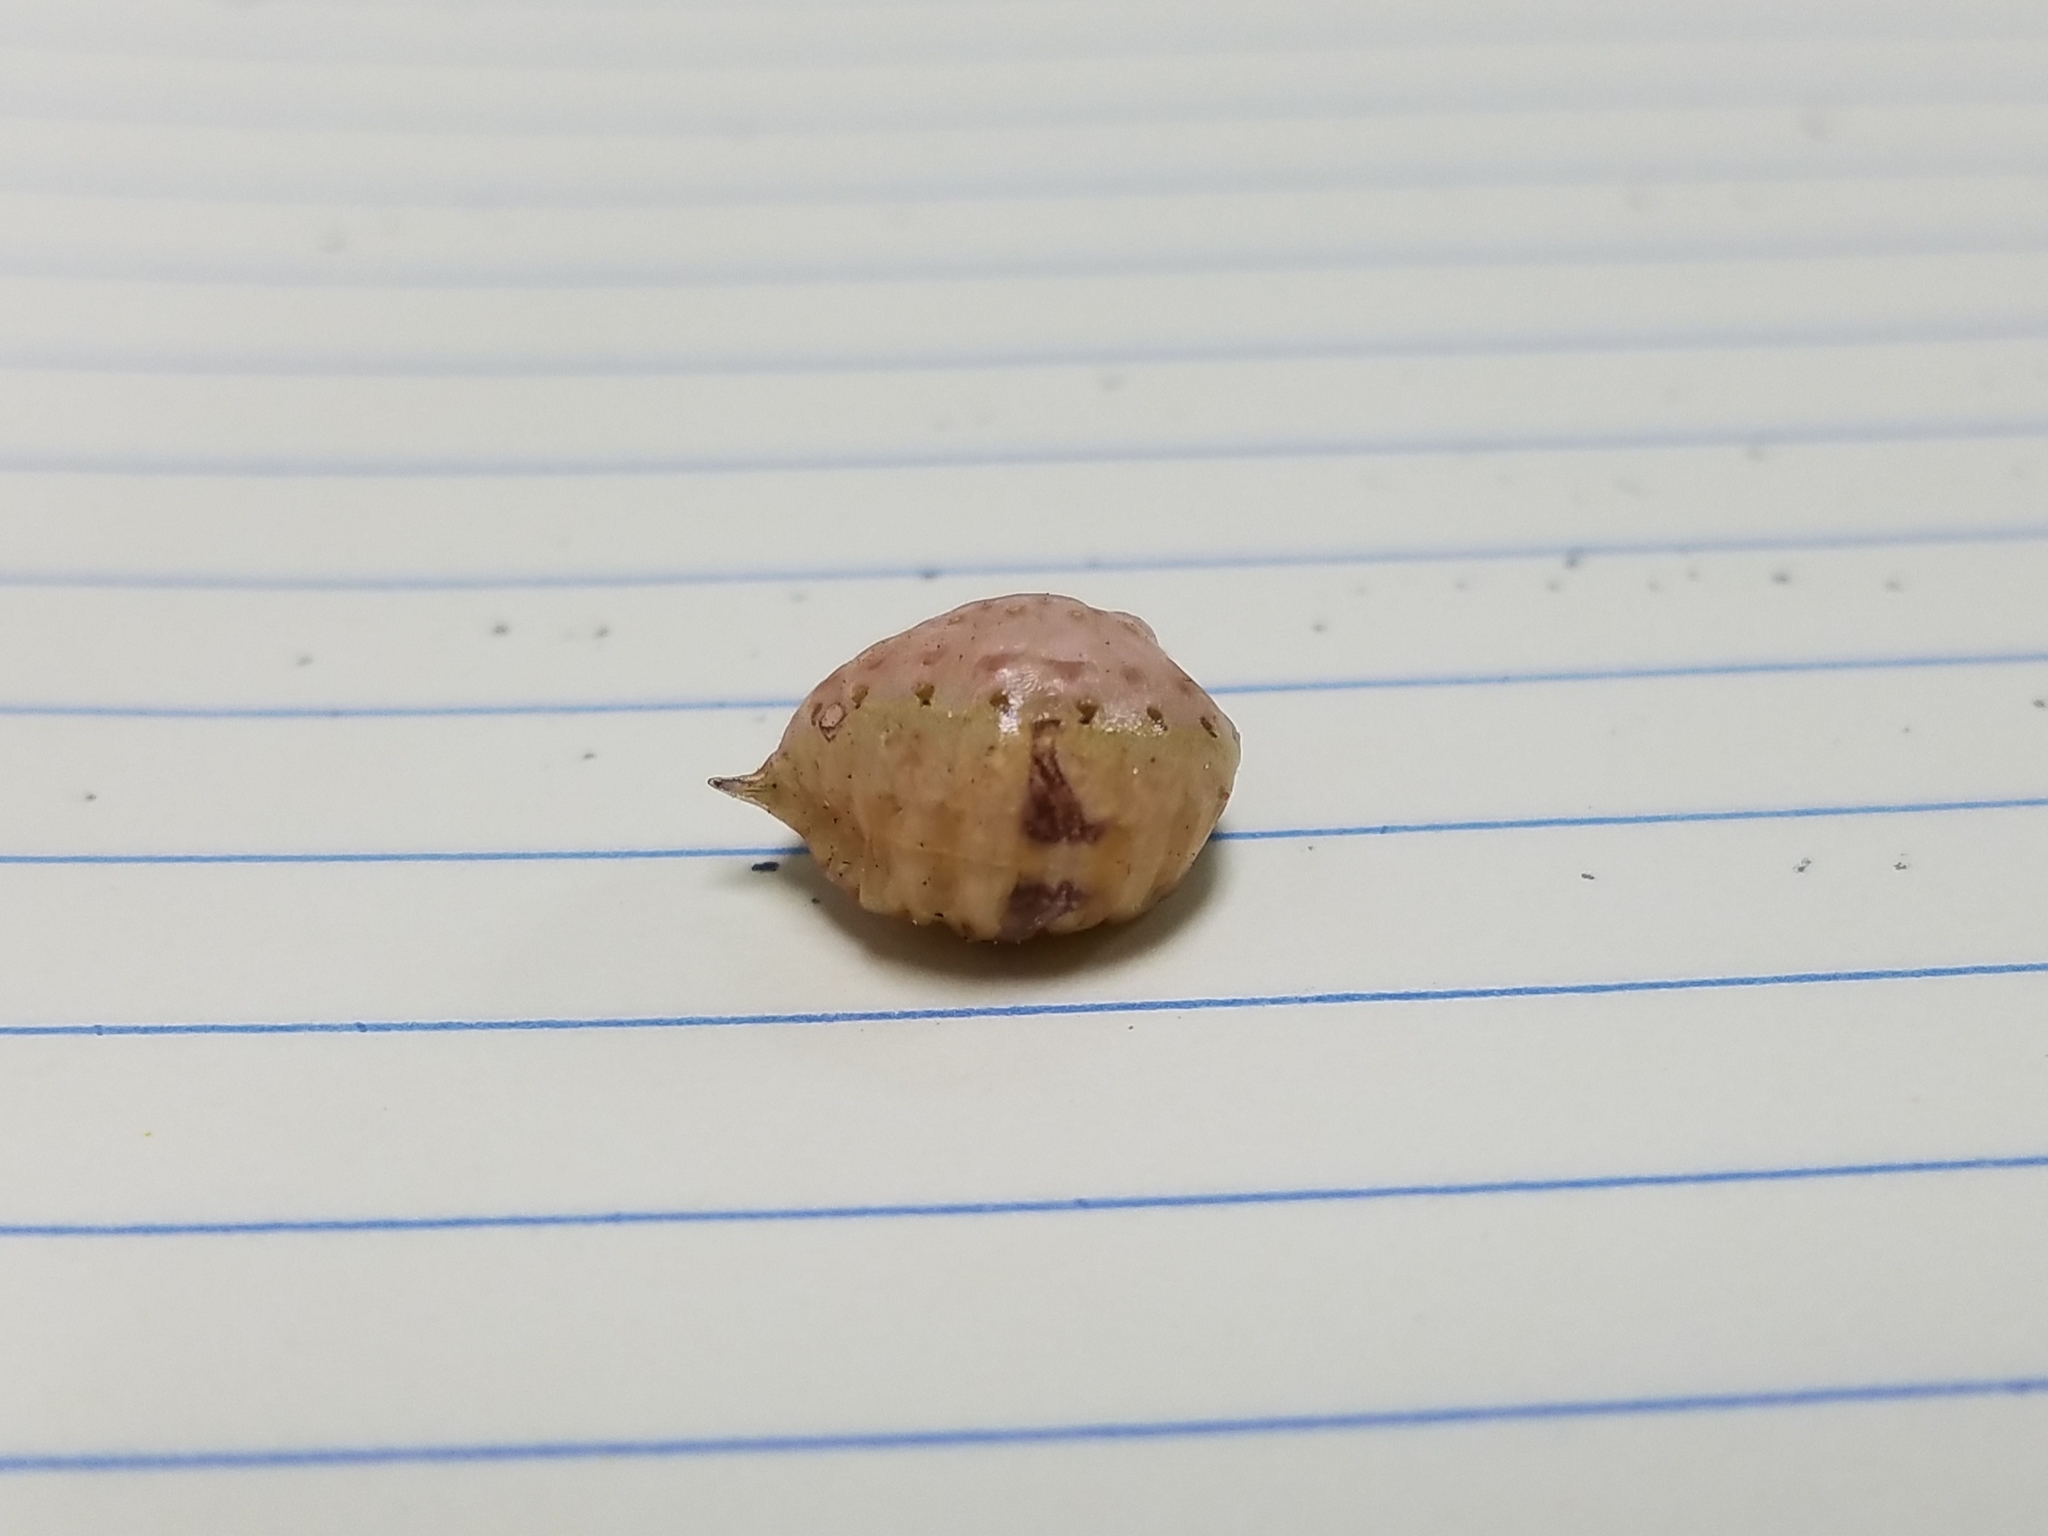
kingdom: Animalia
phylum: Arthropoda
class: Insecta
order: Lepidoptera
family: Limacodidae
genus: Prolimacodes
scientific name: Prolimacodes badia
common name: Skiff moth
